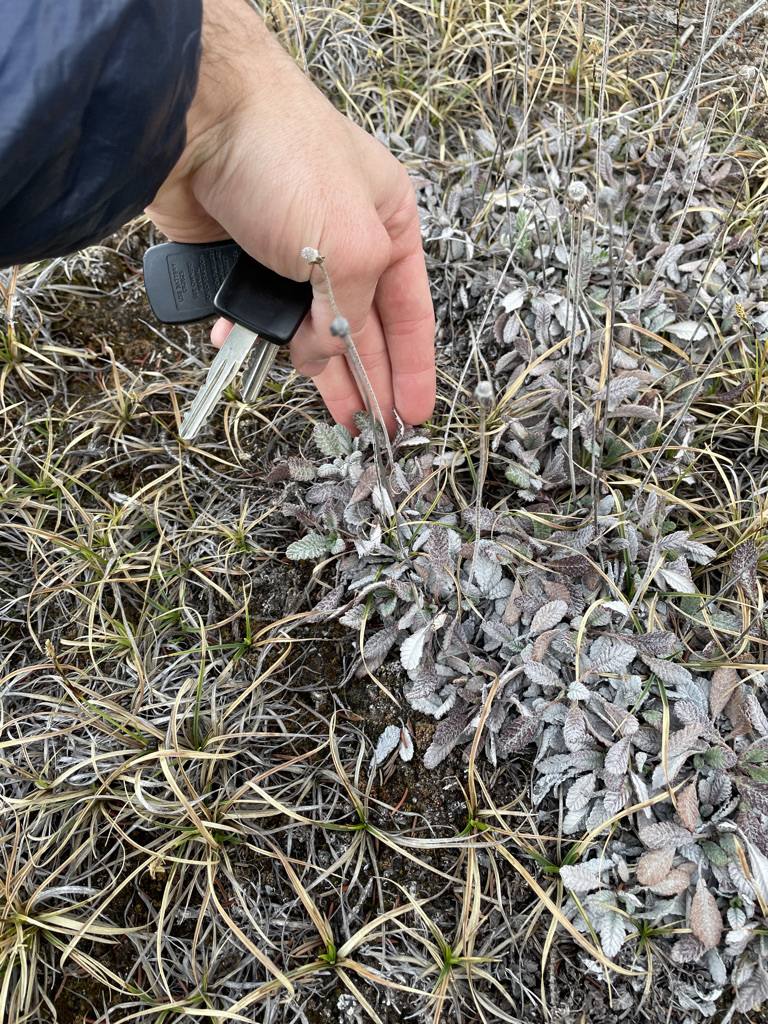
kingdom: Plantae
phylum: Tracheophyta
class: Magnoliopsida
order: Rosales
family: Rosaceae
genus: Dryas
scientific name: Dryas drummondii
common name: Drummond's dryad
